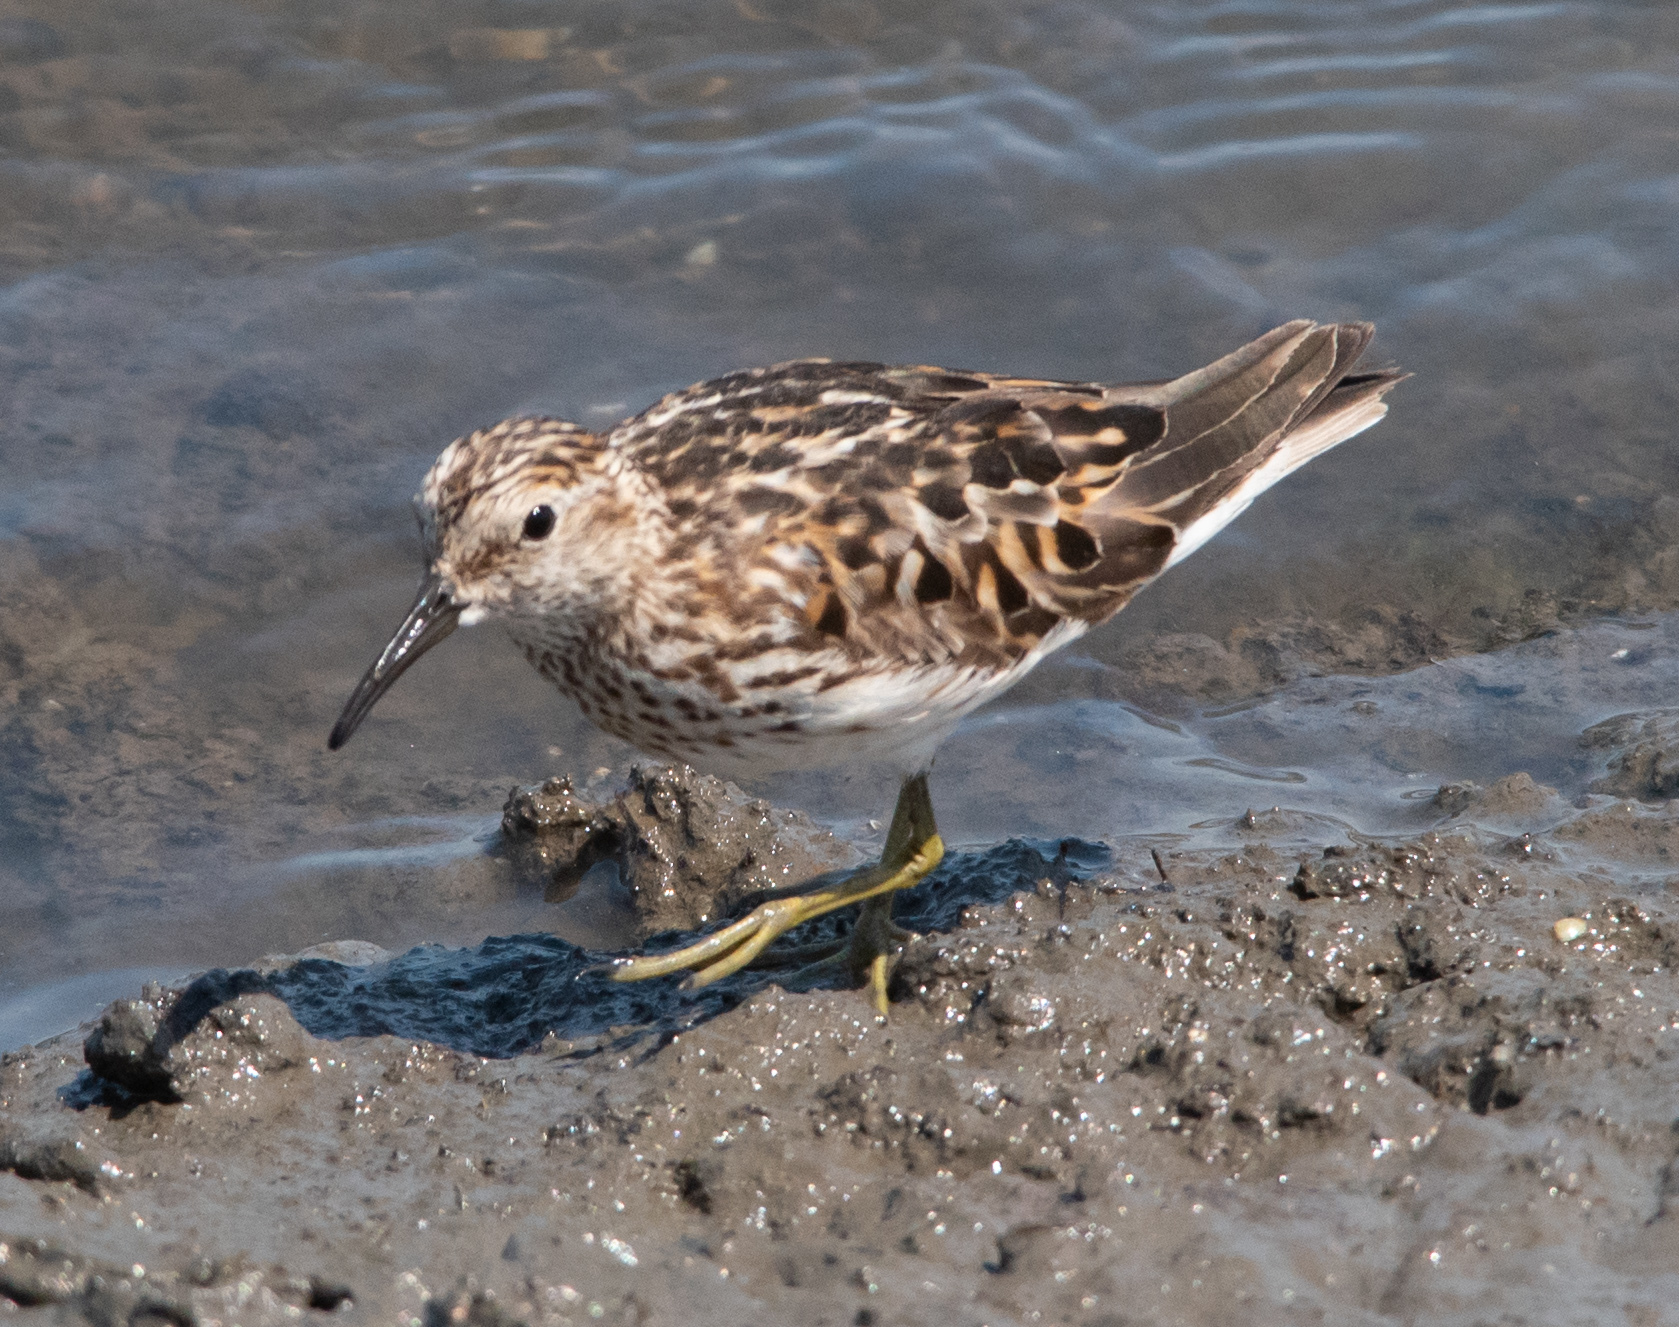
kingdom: Animalia
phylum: Chordata
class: Aves
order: Charadriiformes
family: Scolopacidae
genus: Calidris
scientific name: Calidris minutilla
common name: Least sandpiper
